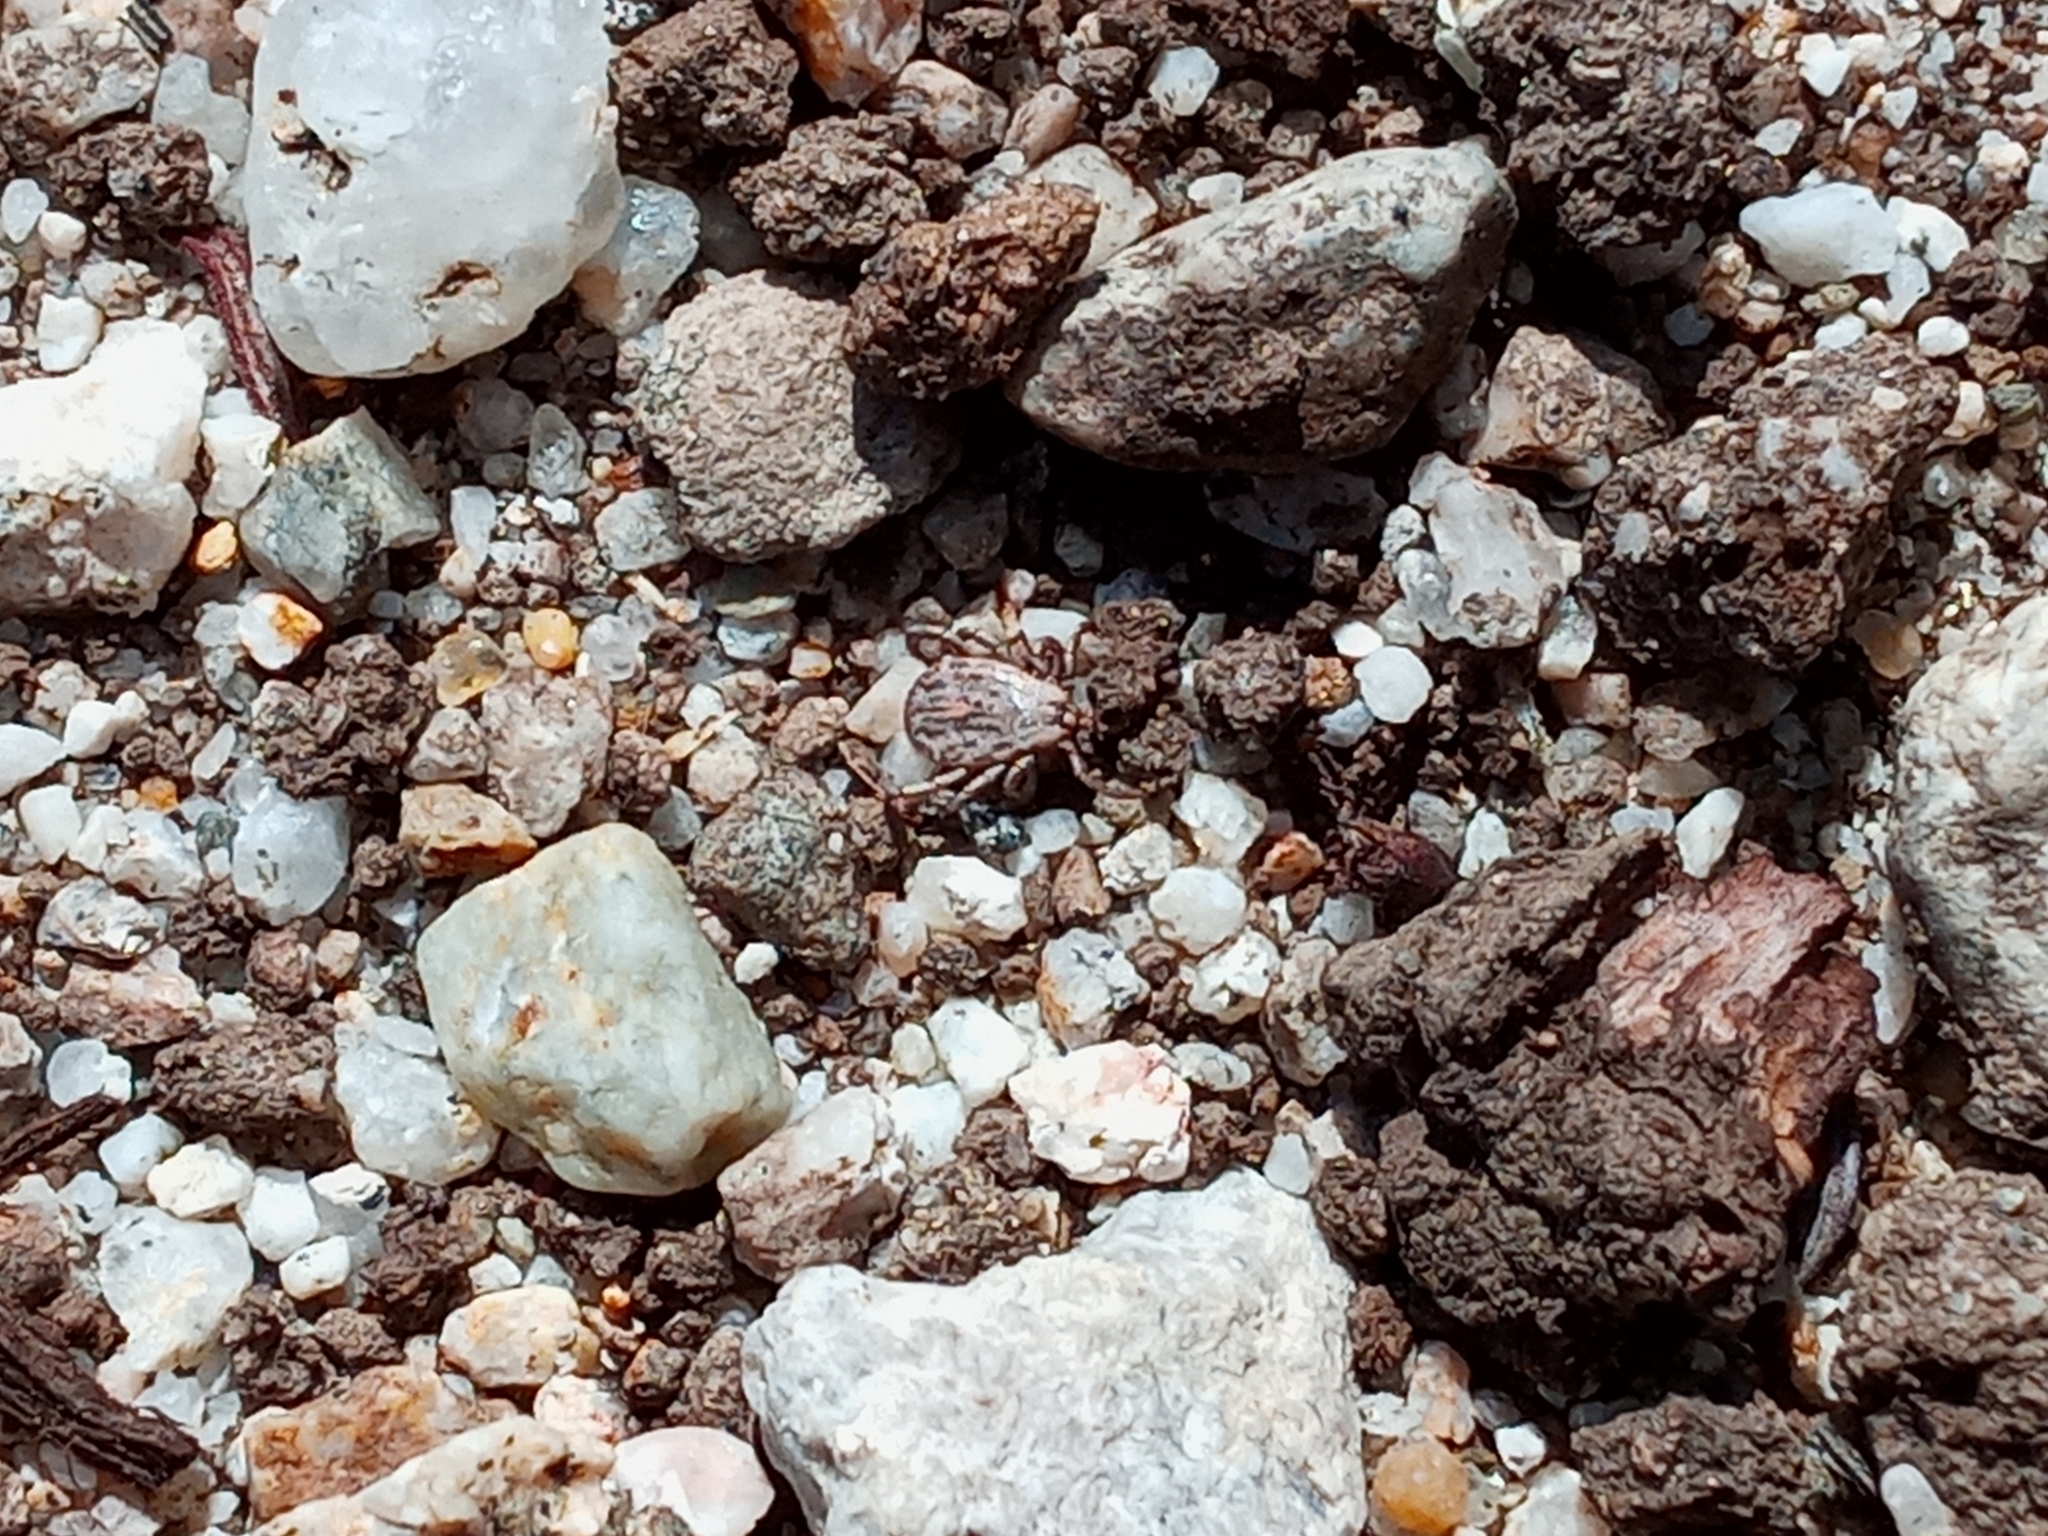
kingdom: Animalia
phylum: Arthropoda
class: Arachnida
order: Ixodida
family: Ixodidae
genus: Dermacentor
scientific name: Dermacentor occidentalis
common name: Net tick
